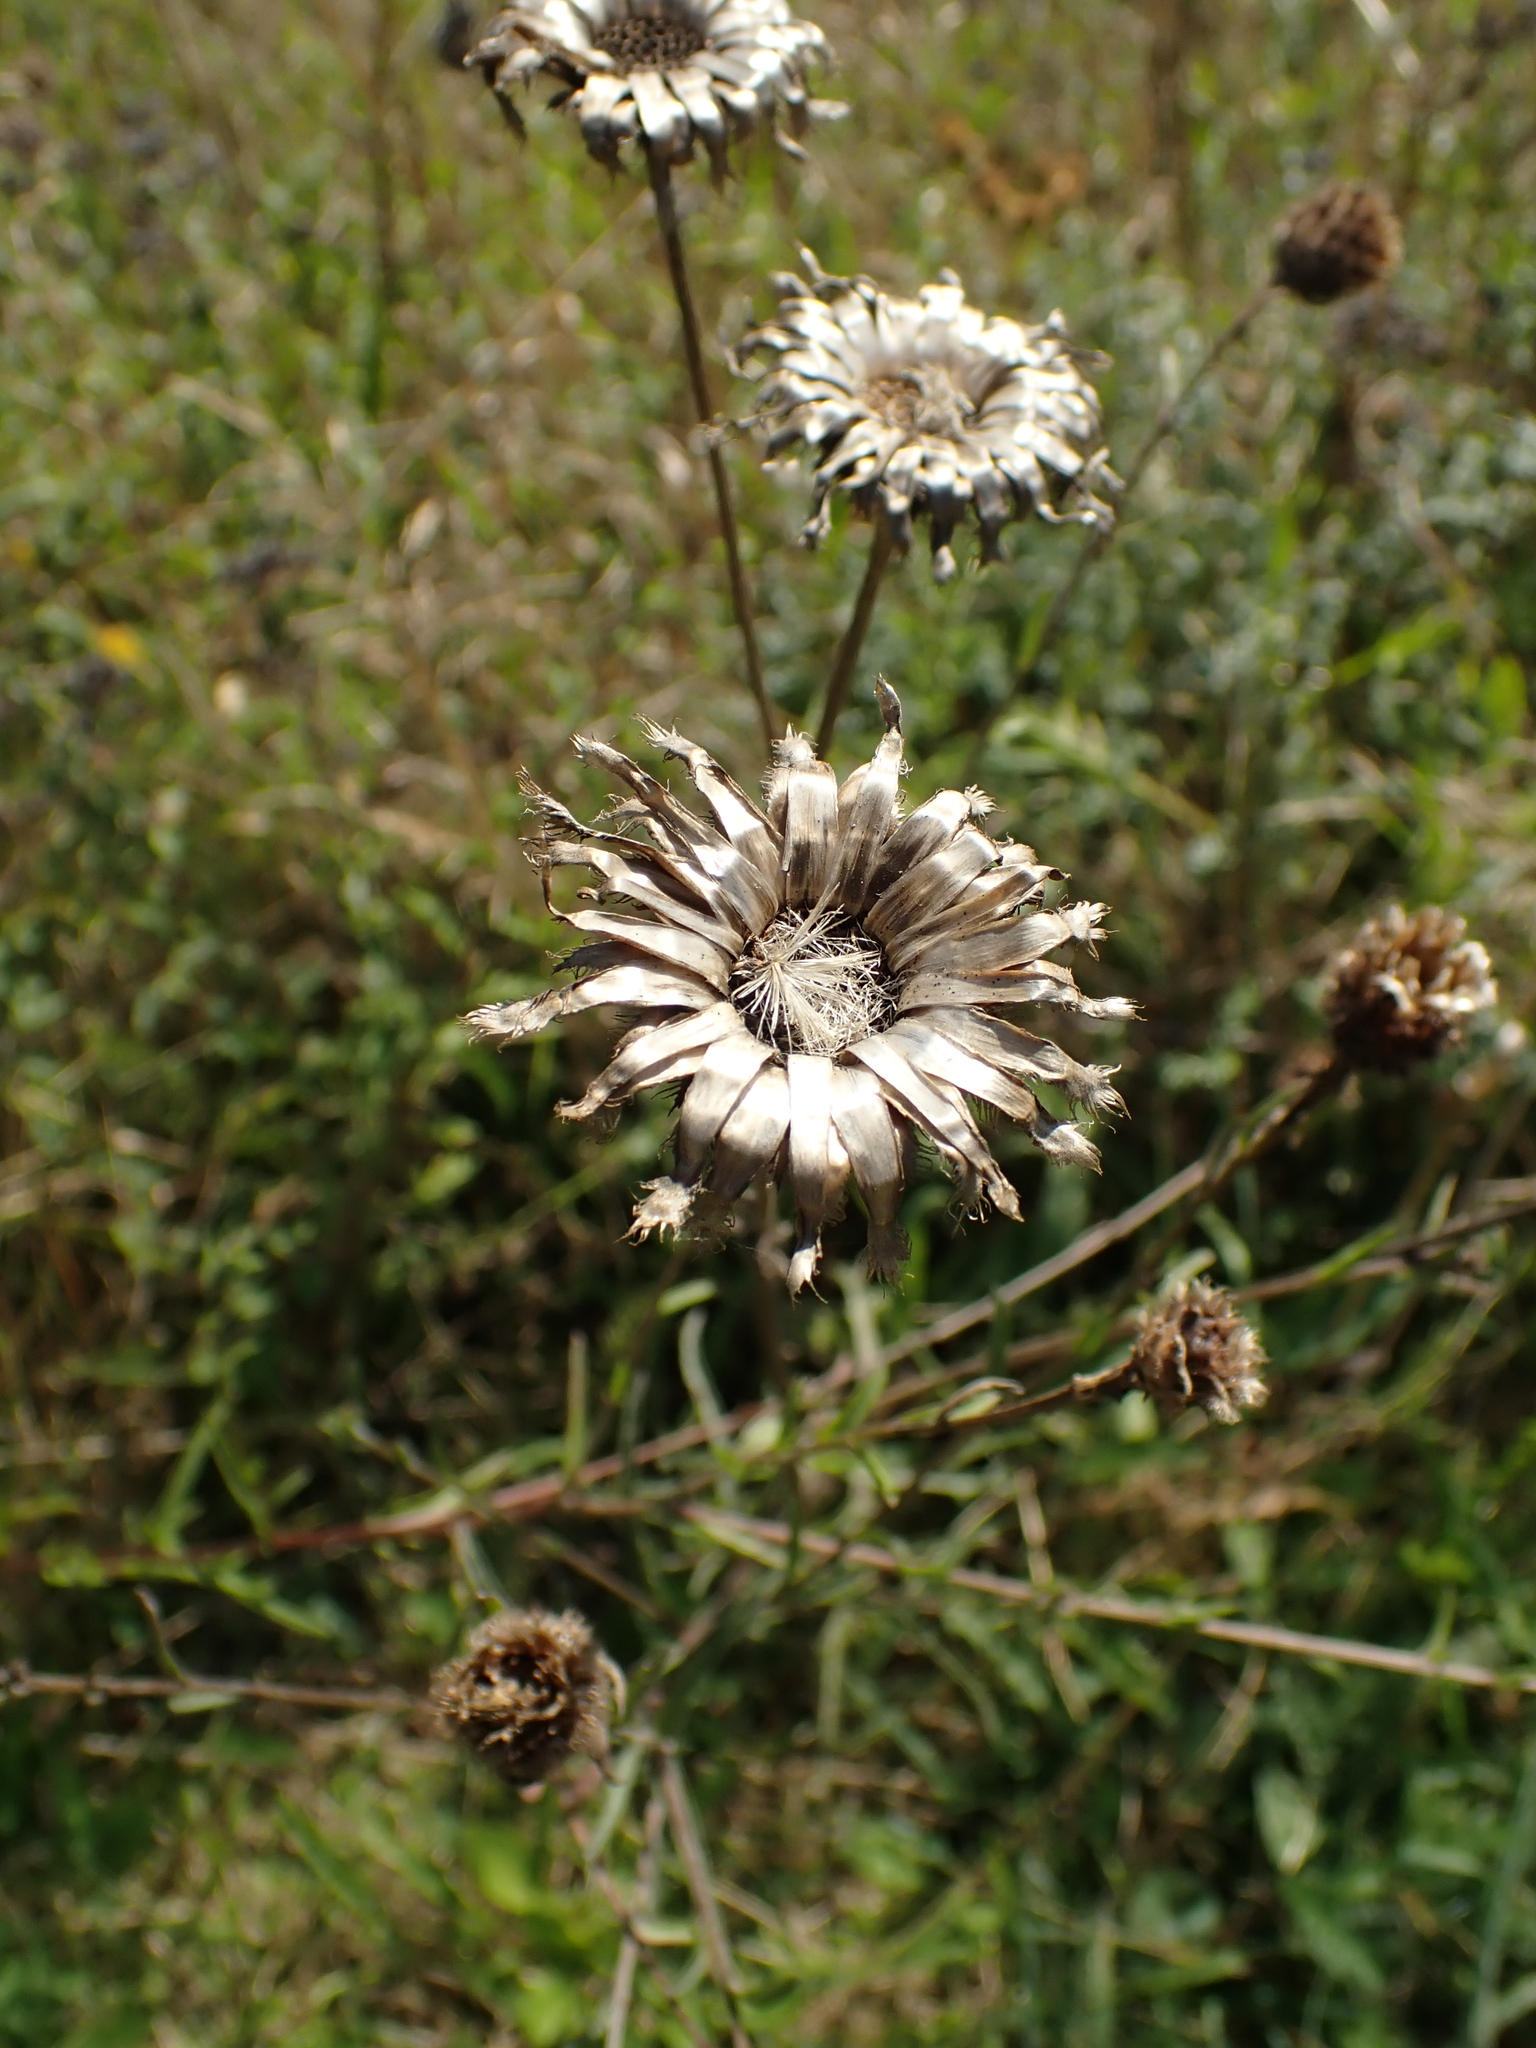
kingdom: Plantae
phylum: Tracheophyta
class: Magnoliopsida
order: Asterales
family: Asteraceae
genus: Centaurea
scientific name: Centaurea scabiosa
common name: Greater knapweed
